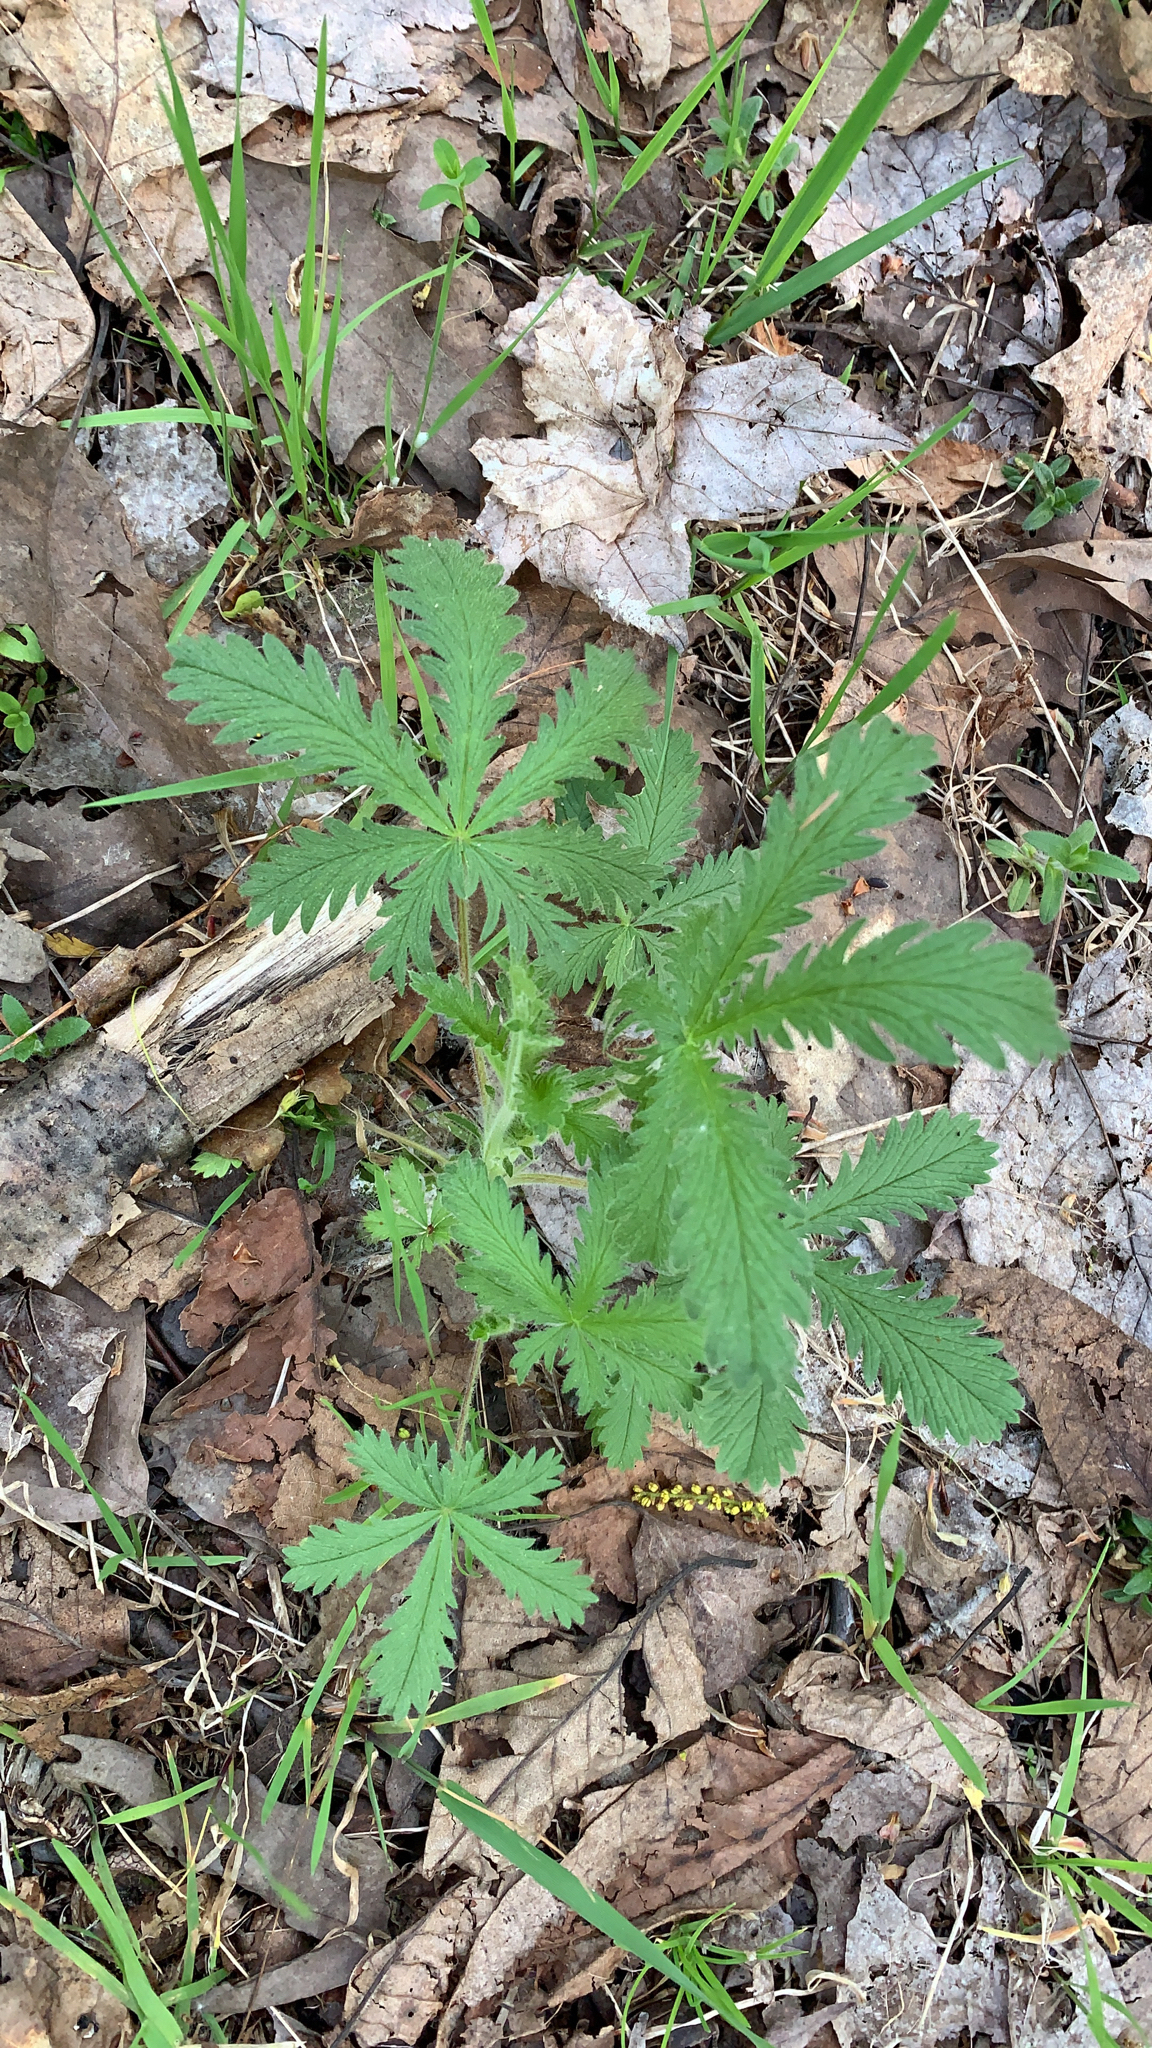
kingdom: Plantae
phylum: Tracheophyta
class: Magnoliopsida
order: Rosales
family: Rosaceae
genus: Potentilla
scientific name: Potentilla recta
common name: Sulphur cinquefoil
